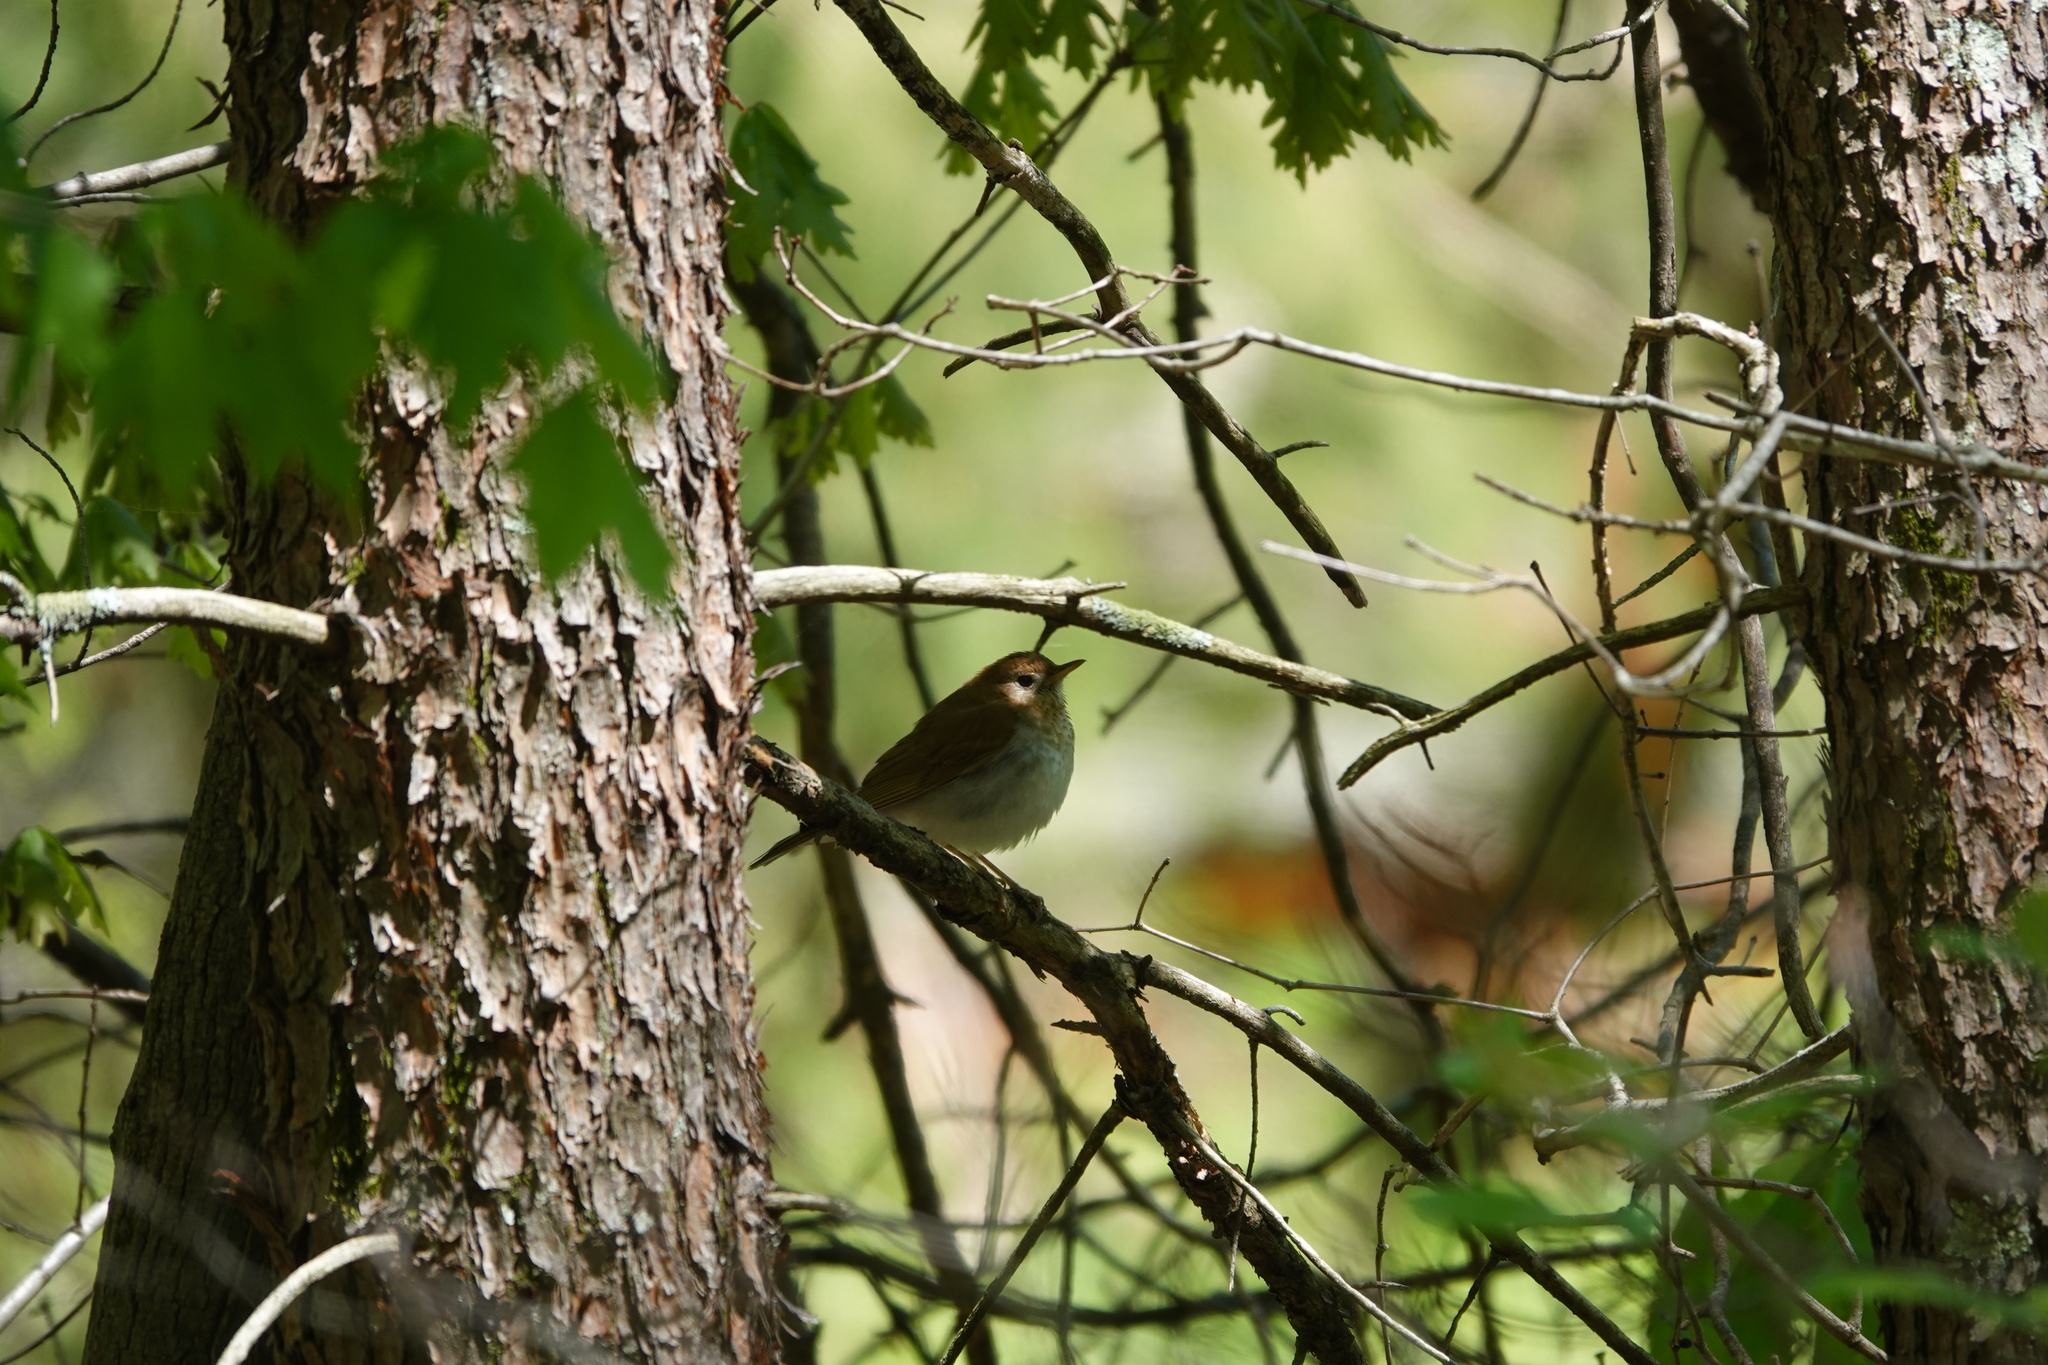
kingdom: Animalia
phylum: Chordata
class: Aves
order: Passeriformes
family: Turdidae
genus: Catharus
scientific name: Catharus fuscescens
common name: Veery
